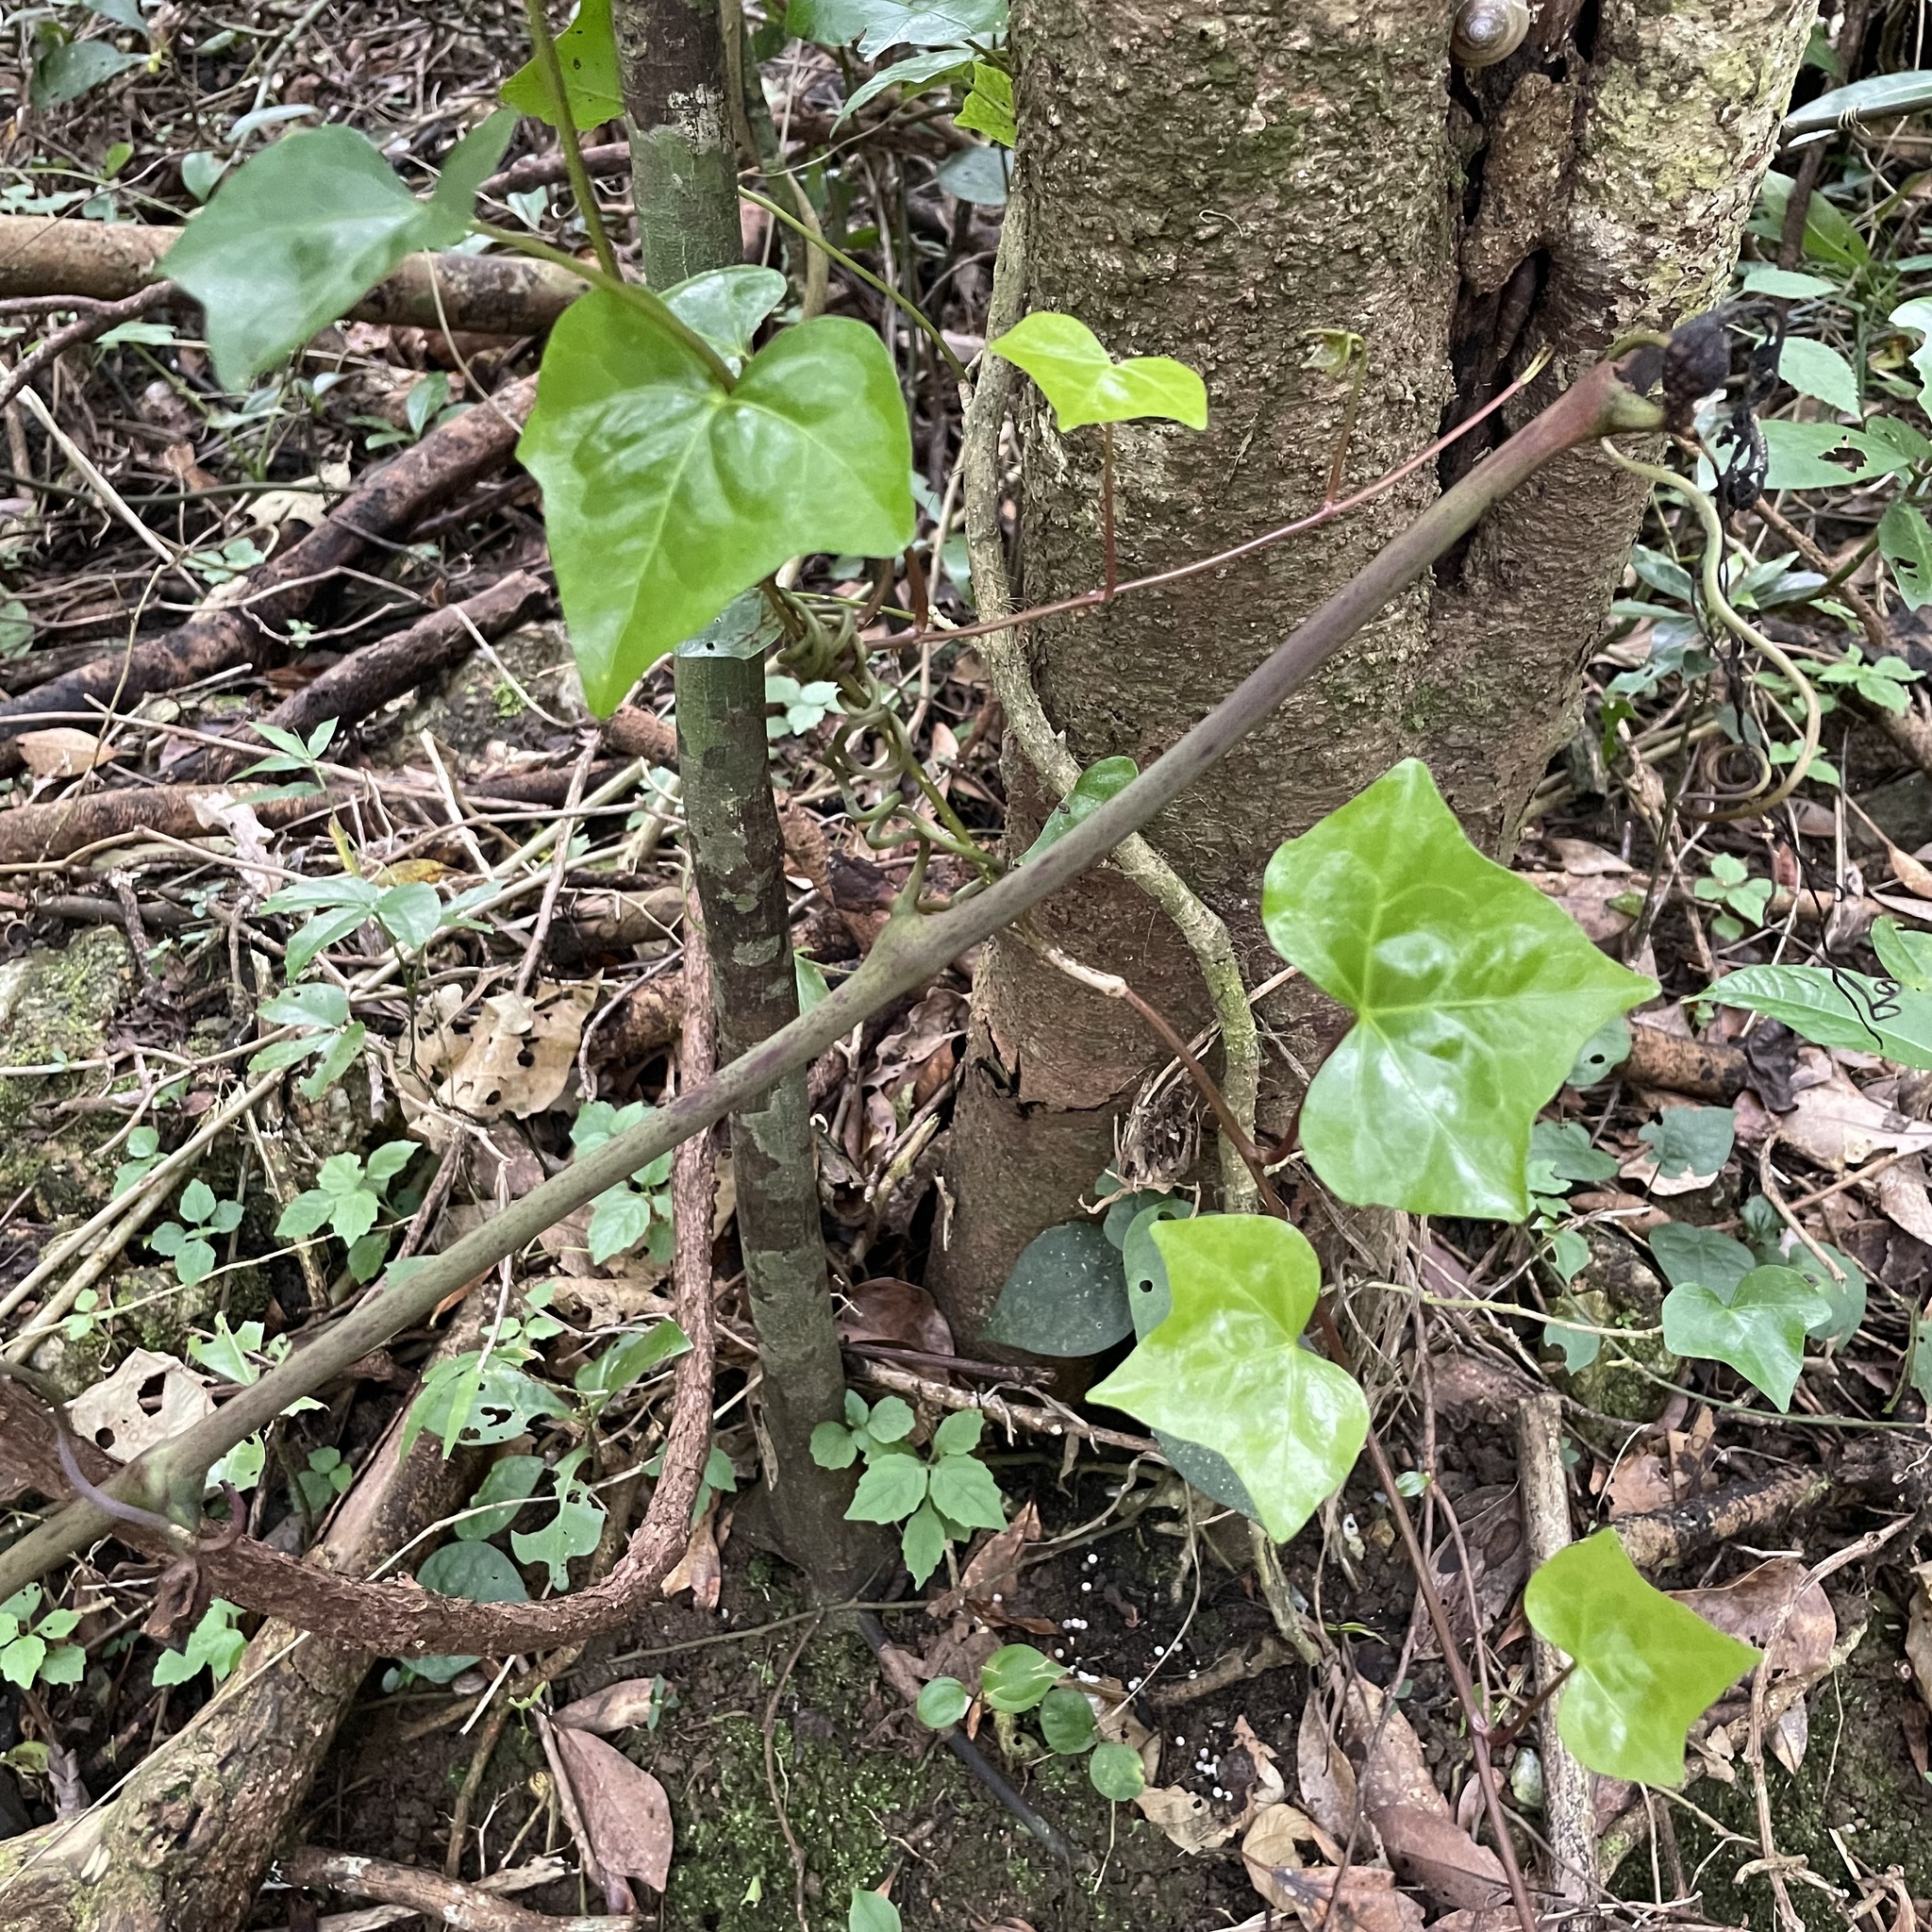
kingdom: Plantae
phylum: Tracheophyta
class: Magnoliopsida
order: Apiales
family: Araliaceae
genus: Hedera
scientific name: Hedera rhombea
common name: Japanese ivy
